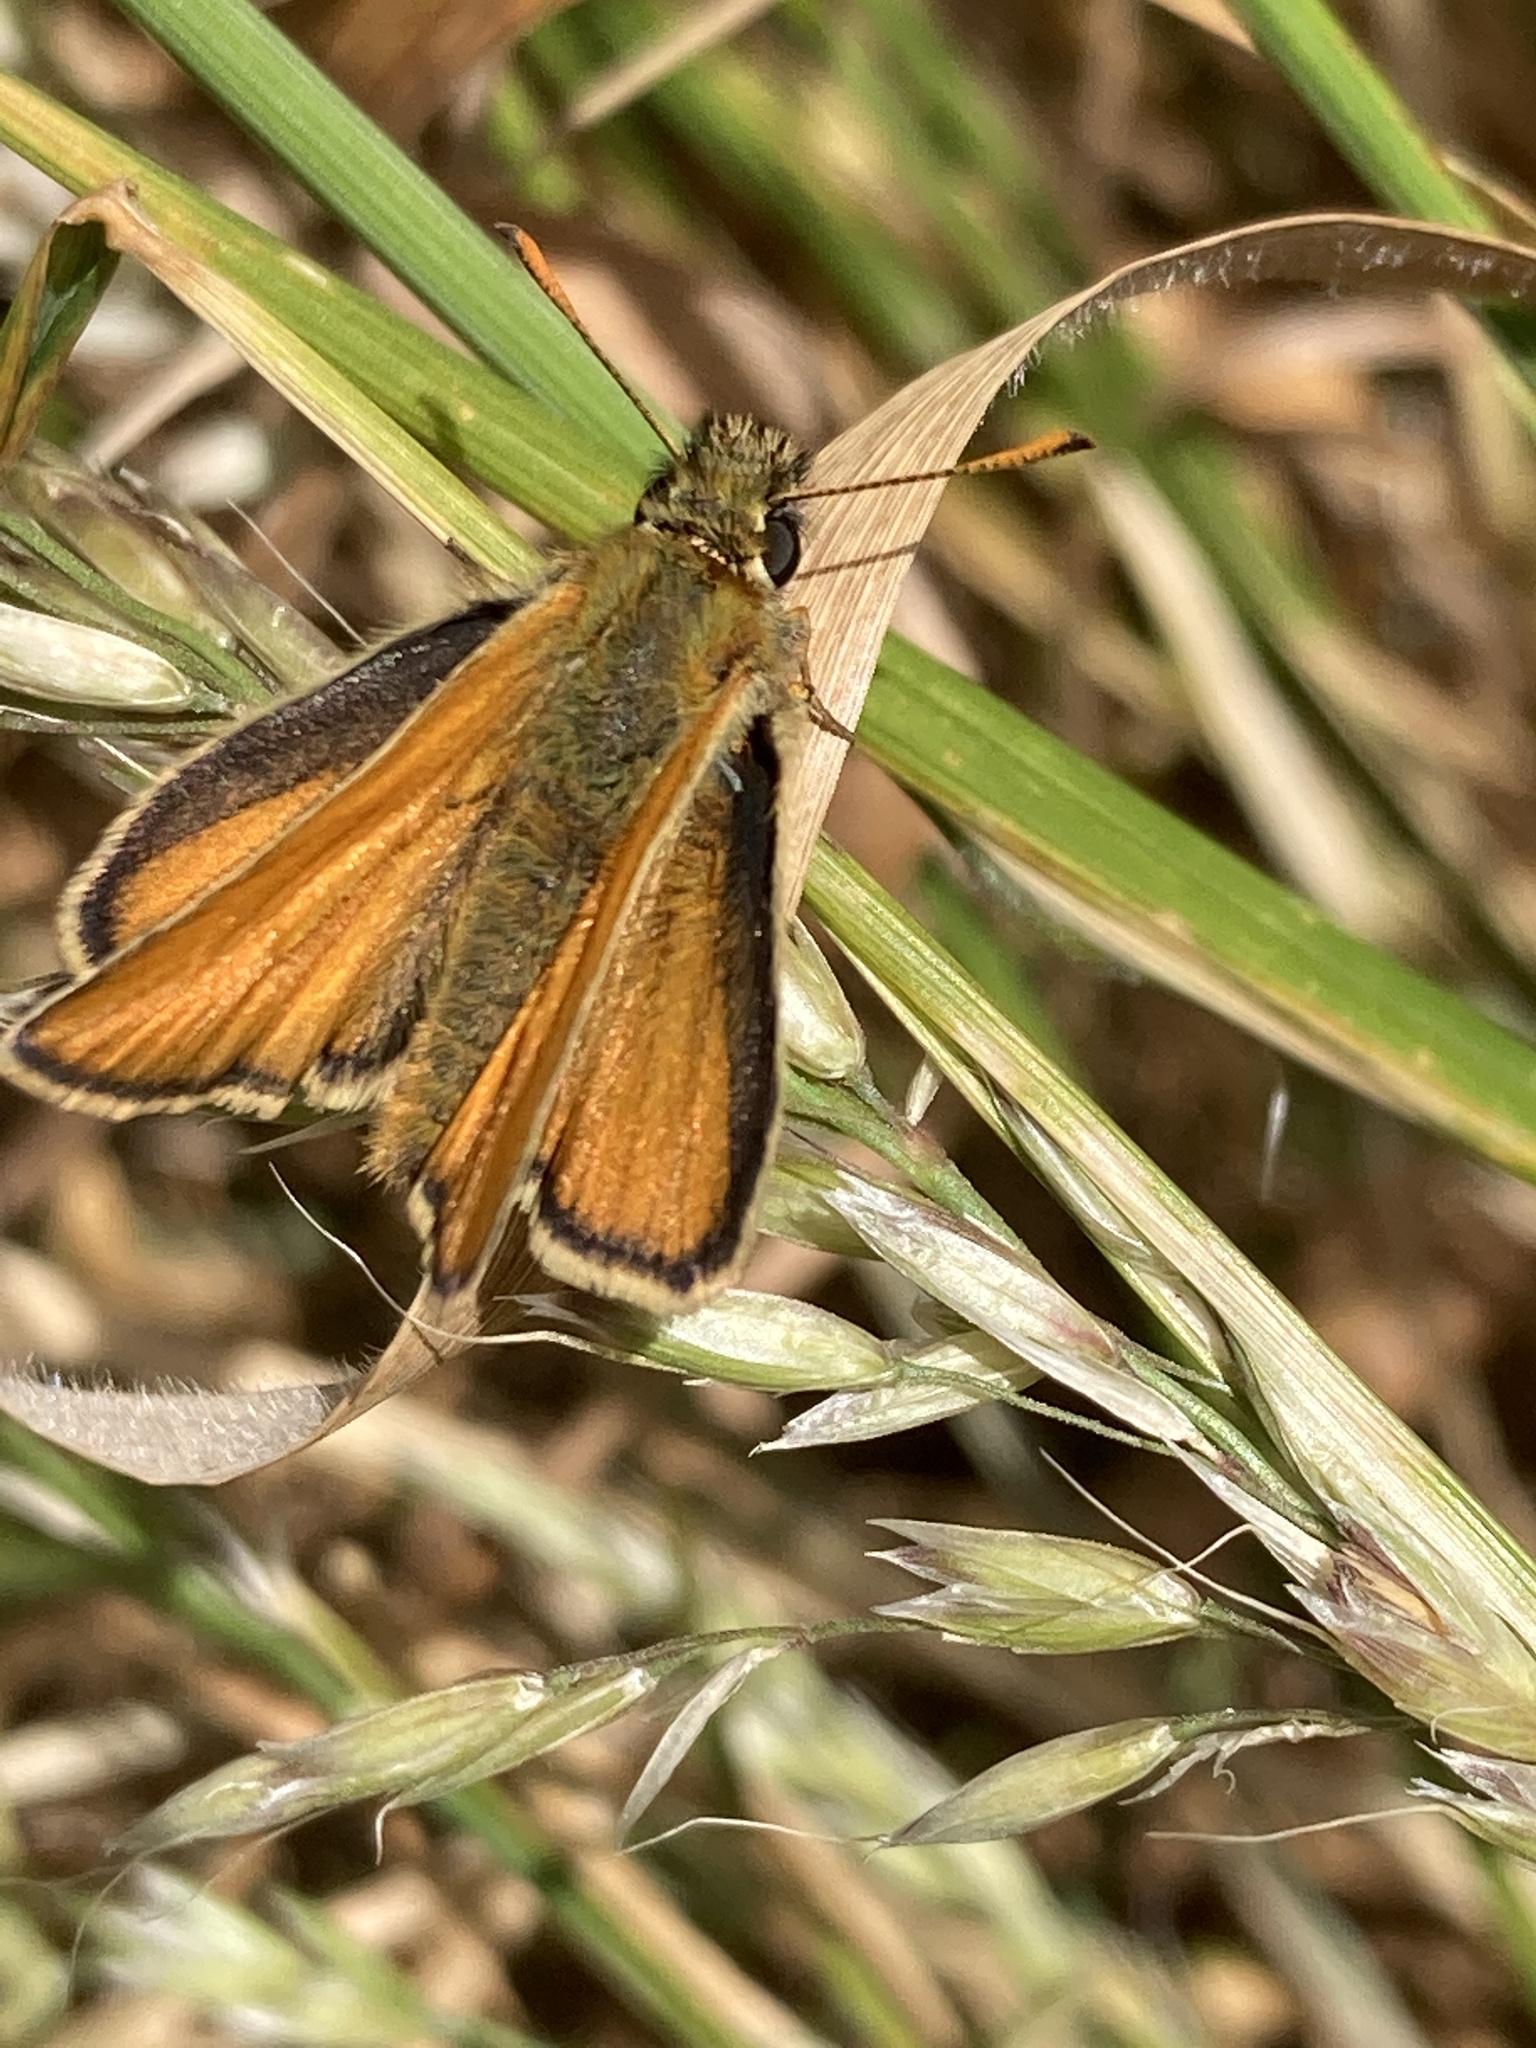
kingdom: Animalia
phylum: Arthropoda
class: Insecta
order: Lepidoptera
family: Hesperiidae
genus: Thymelicus
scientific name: Thymelicus sylvestris
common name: Small skipper
